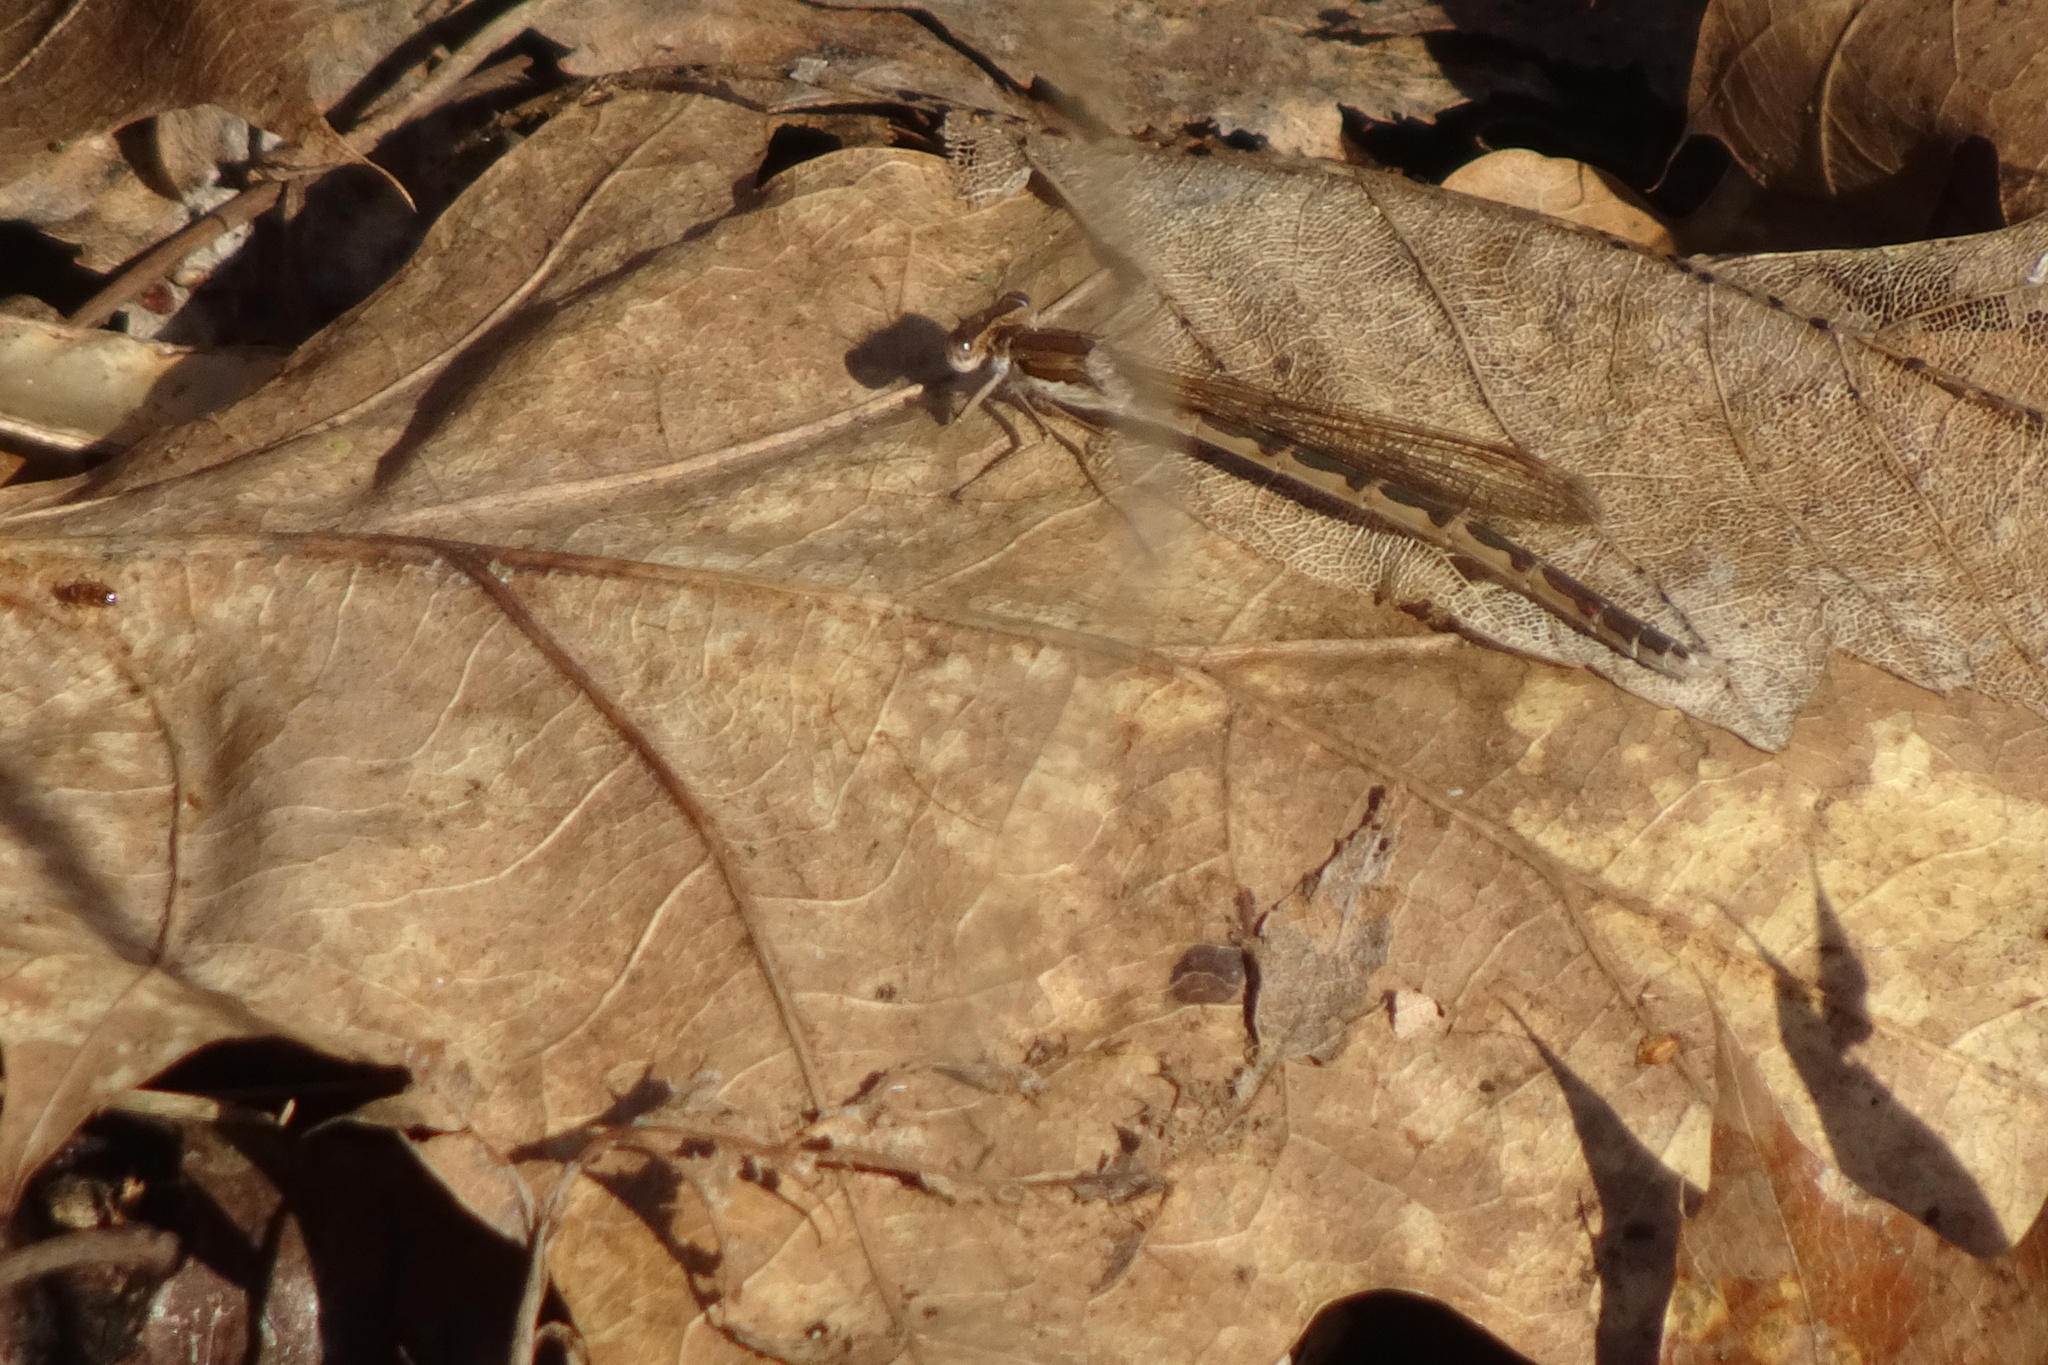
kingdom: Animalia
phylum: Arthropoda
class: Insecta
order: Odonata
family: Lestidae
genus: Sympecma
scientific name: Sympecma fusca
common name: Common winter damsel
